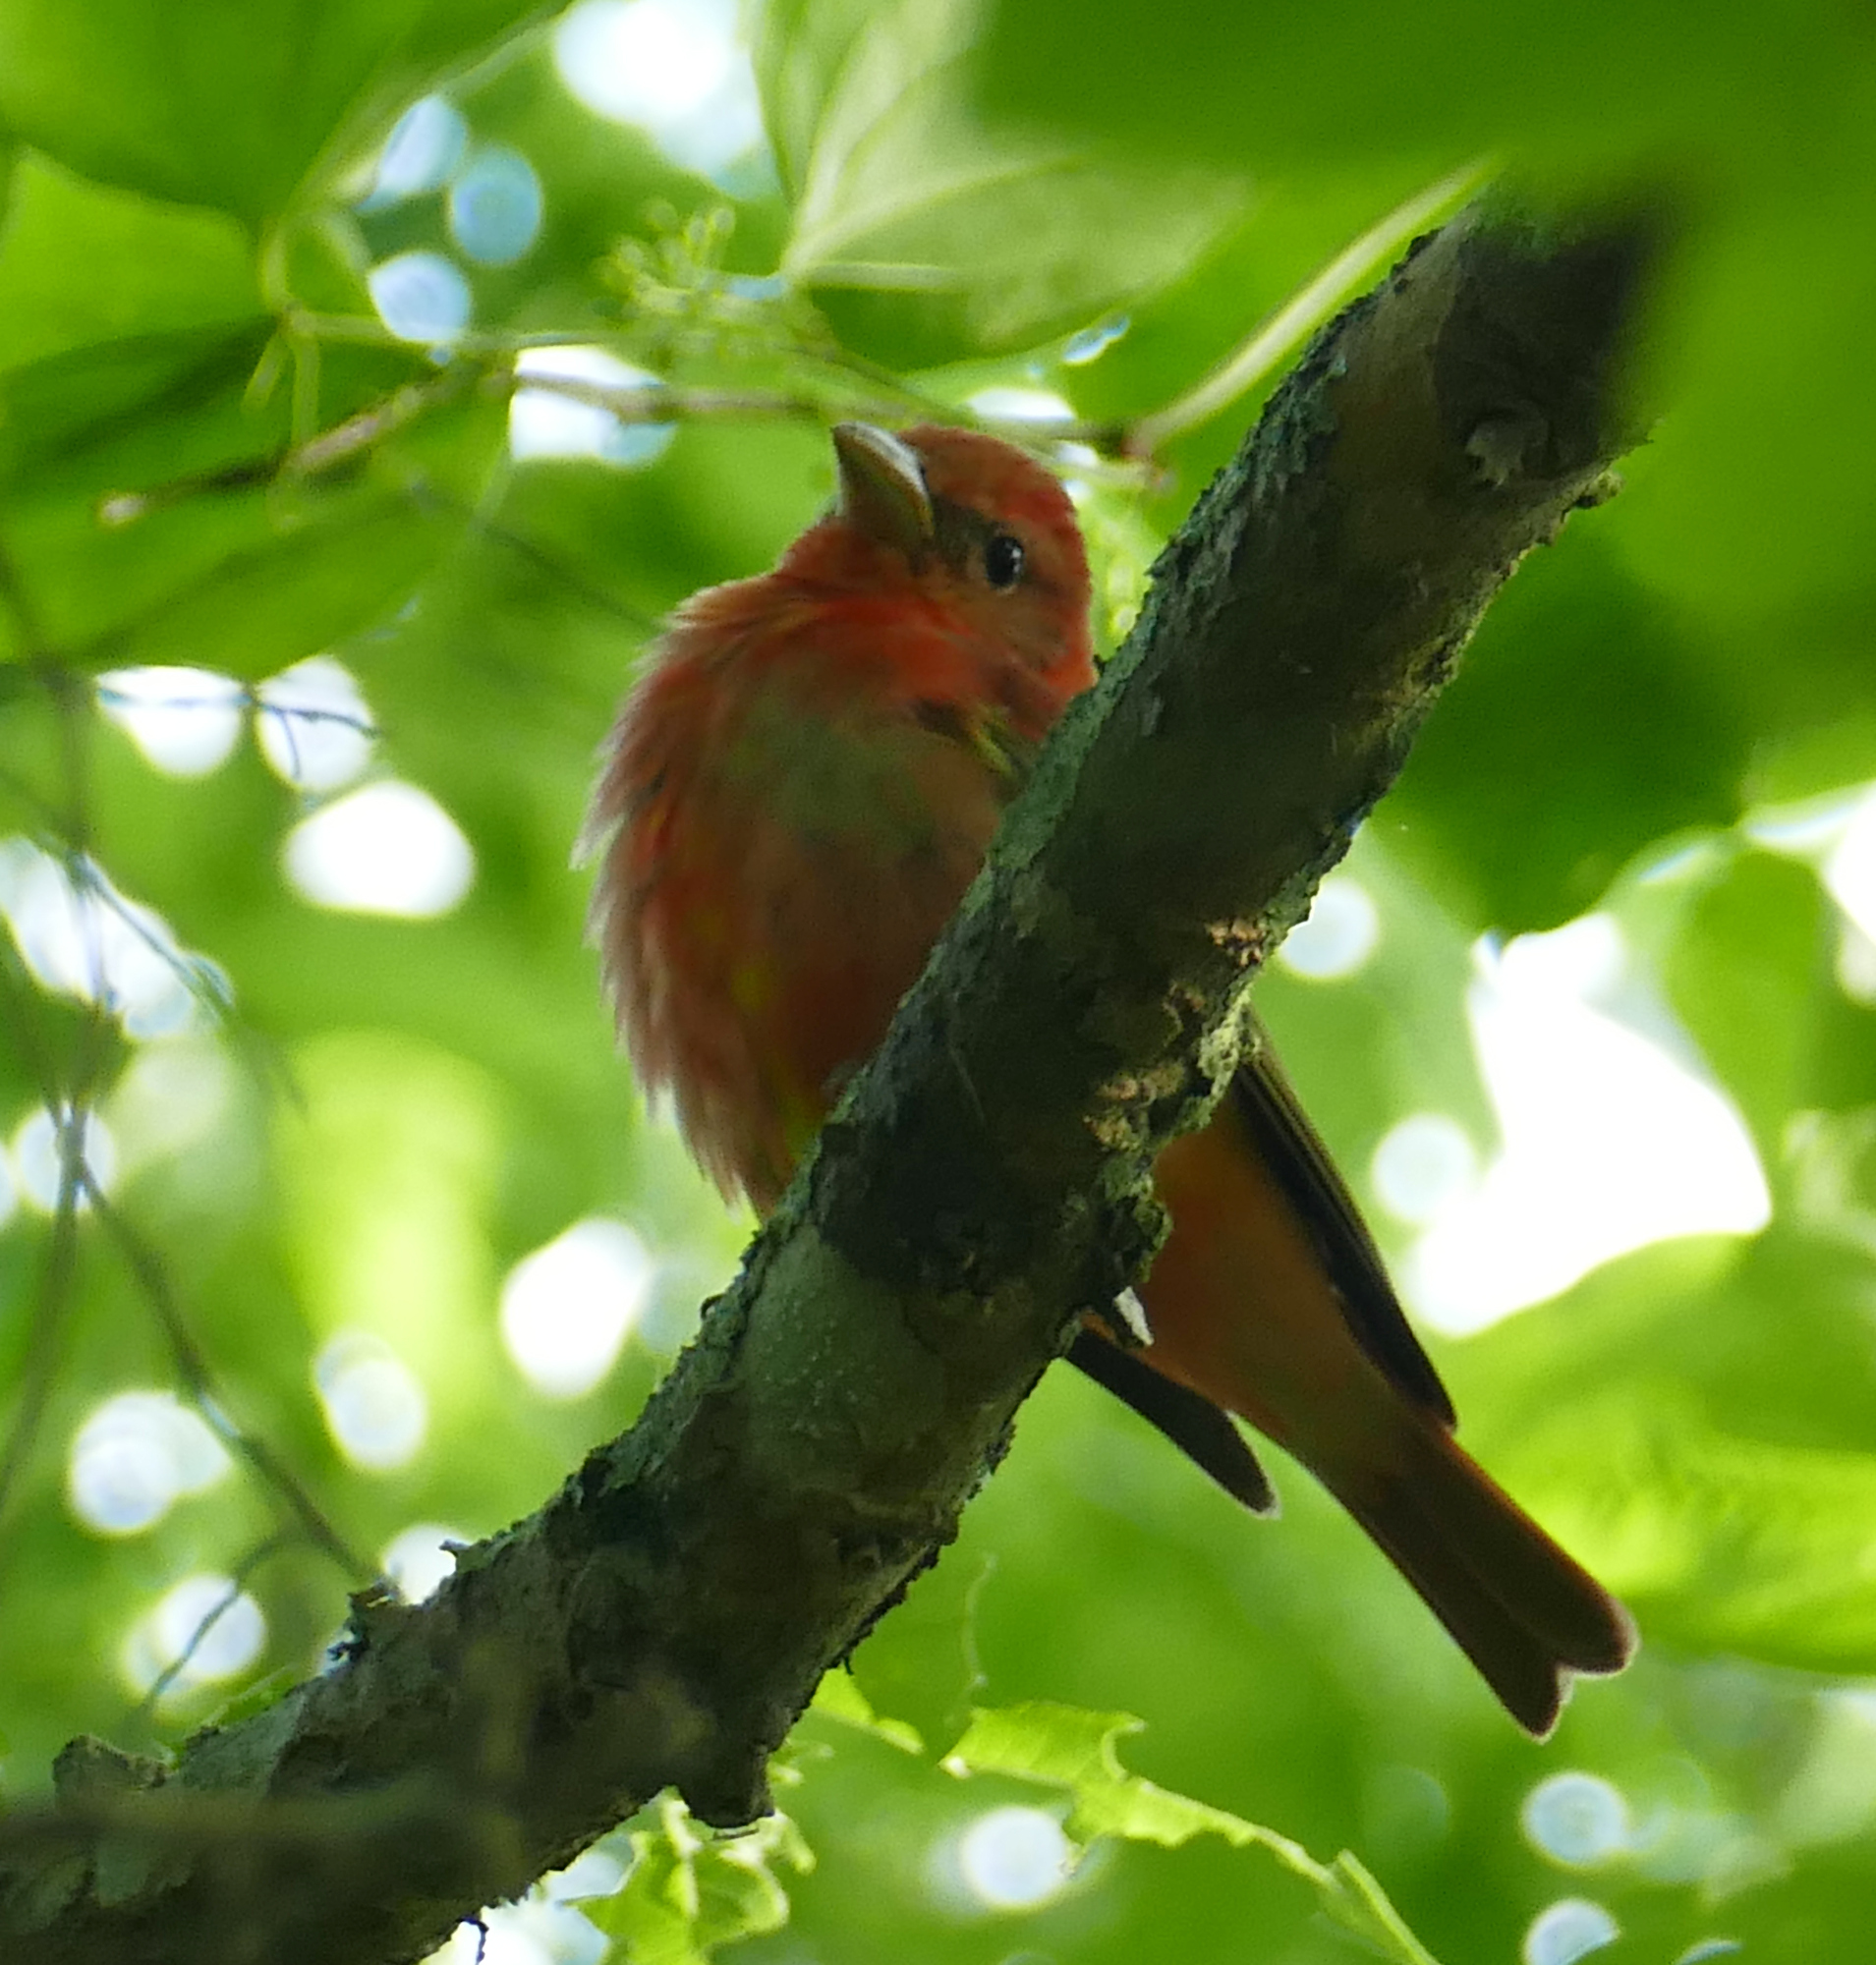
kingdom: Animalia
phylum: Chordata
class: Aves
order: Passeriformes
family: Cardinalidae
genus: Piranga
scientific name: Piranga rubra
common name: Summer tanager
